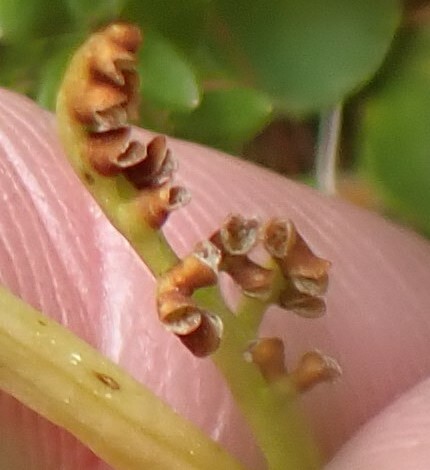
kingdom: Plantae
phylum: Tracheophyta
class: Polypodiopsida
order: Ophioglossales
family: Ophioglossaceae
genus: Botrychium
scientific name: Botrychium lunaria
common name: Moonwort
